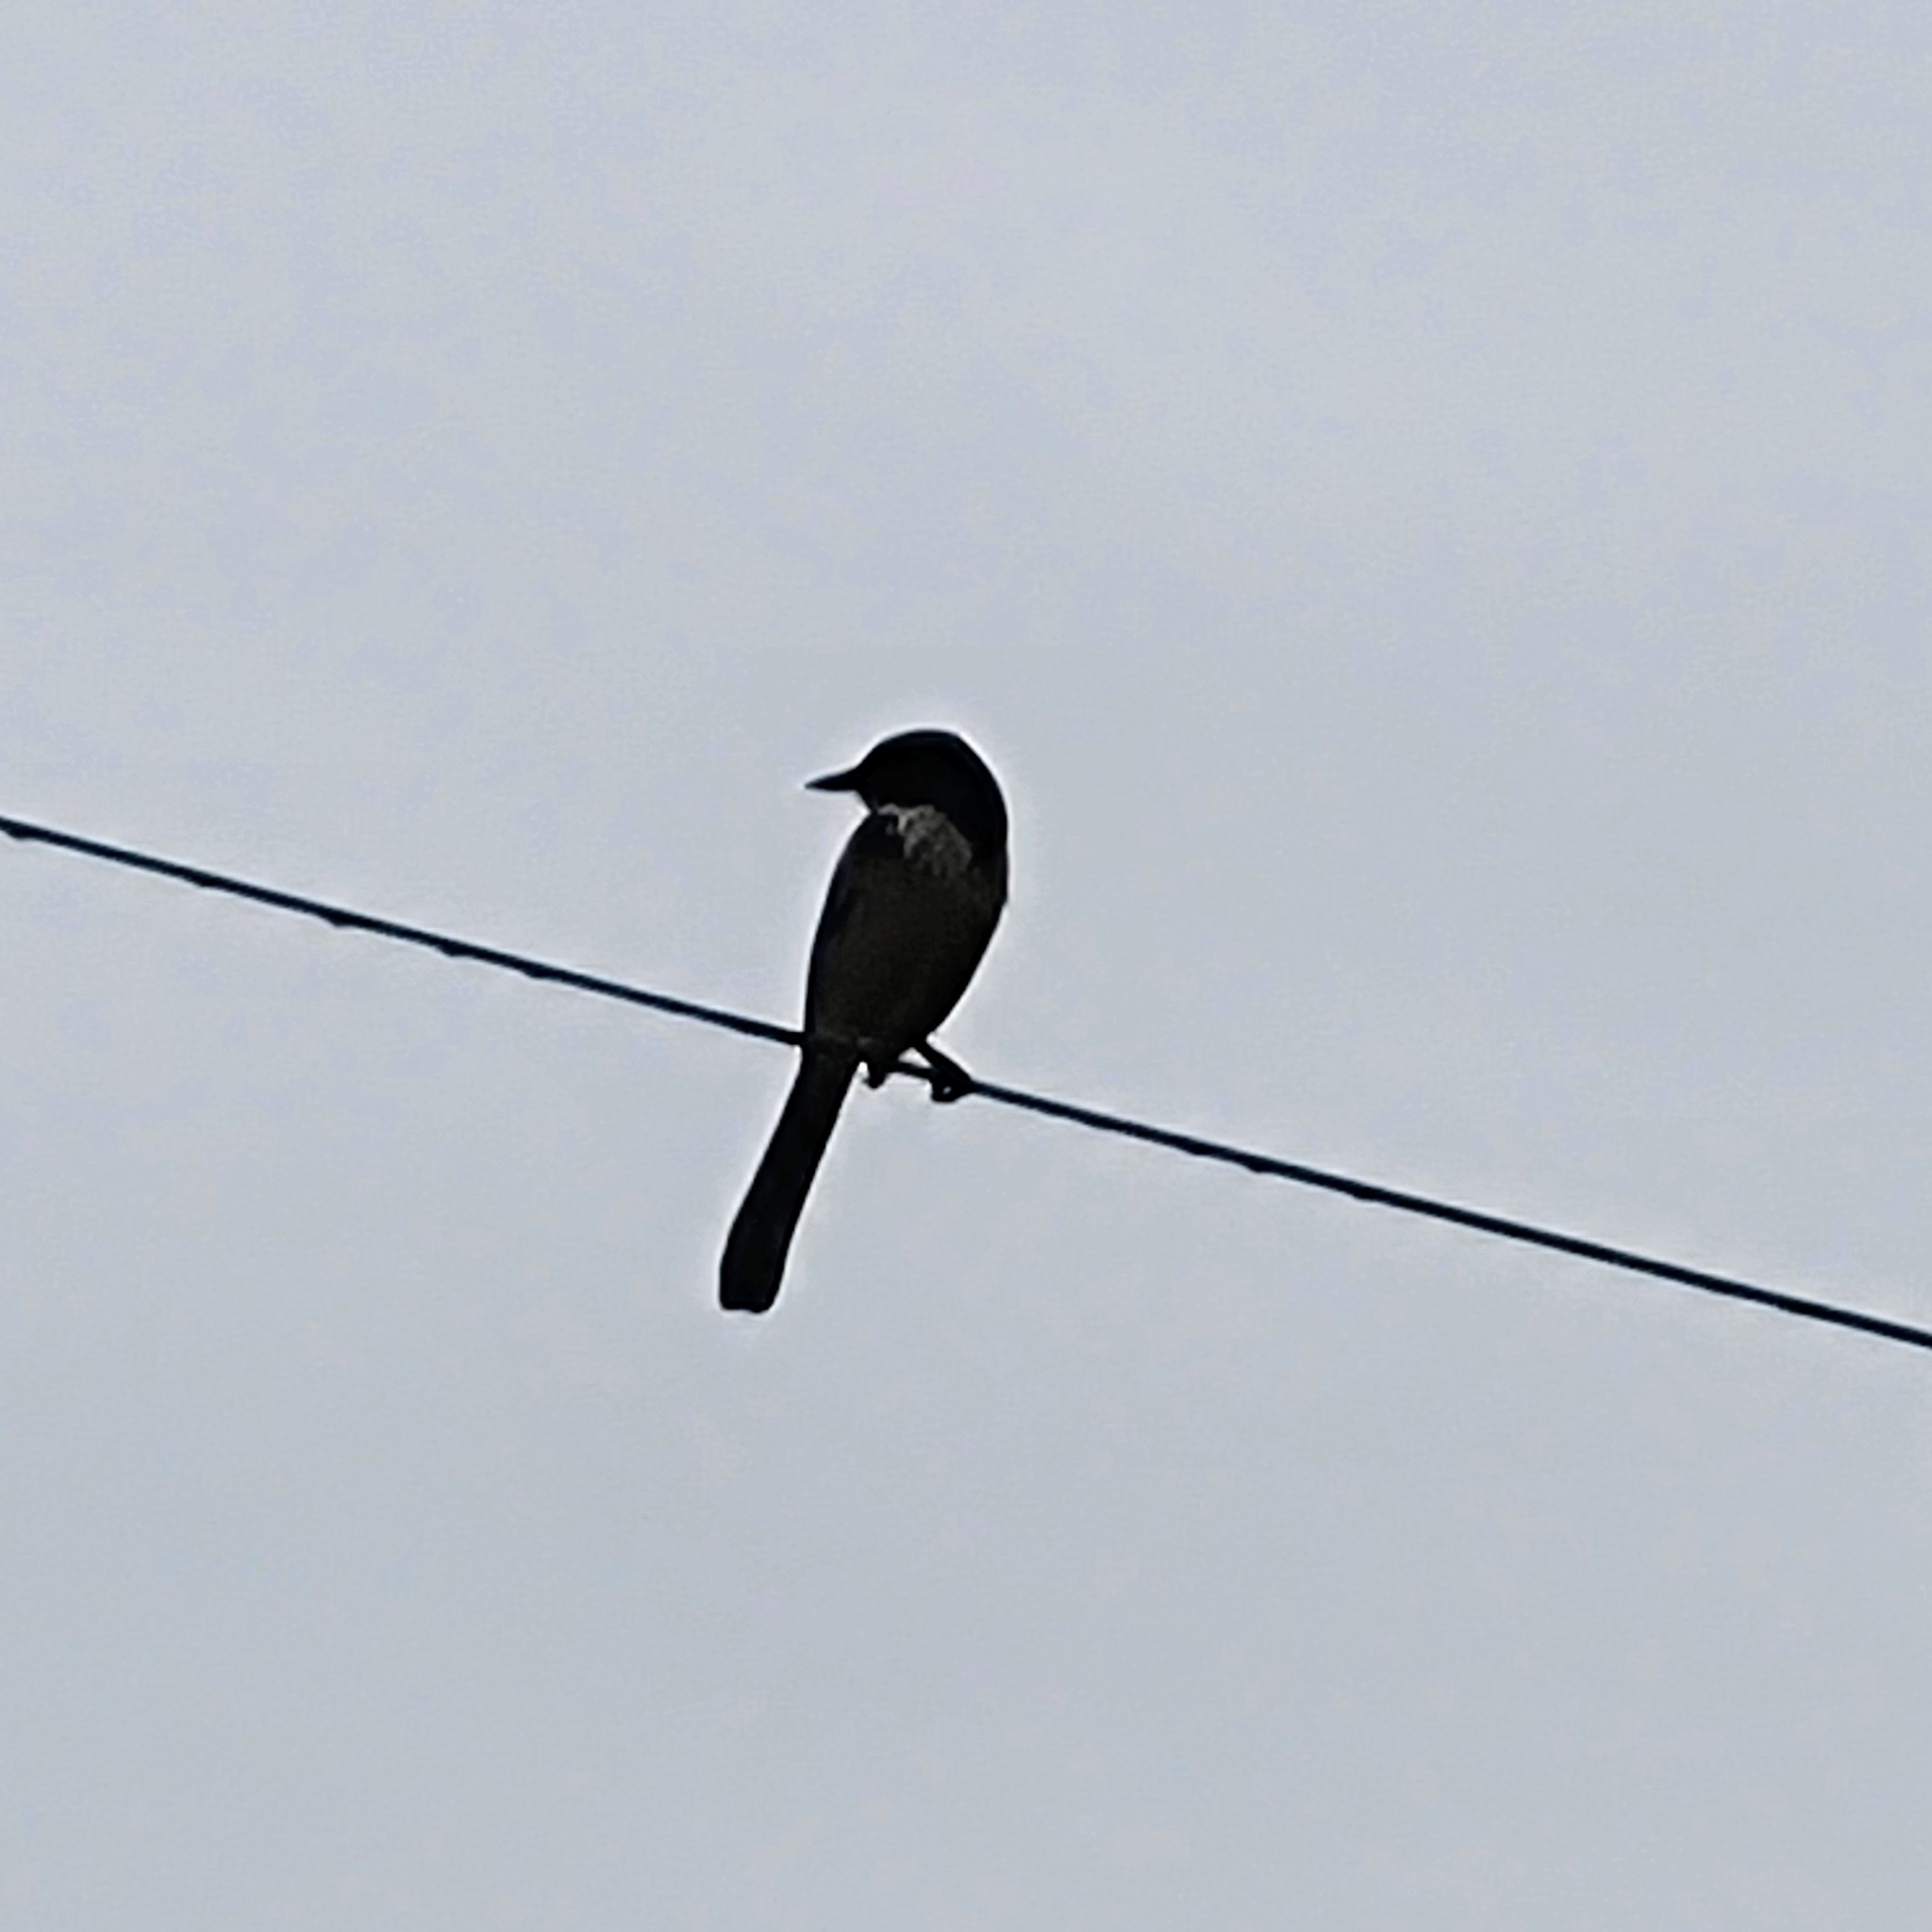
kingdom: Animalia
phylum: Chordata
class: Aves
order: Passeriformes
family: Corvidae
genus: Aphelocoma
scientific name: Aphelocoma californica
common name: California scrub-jay
